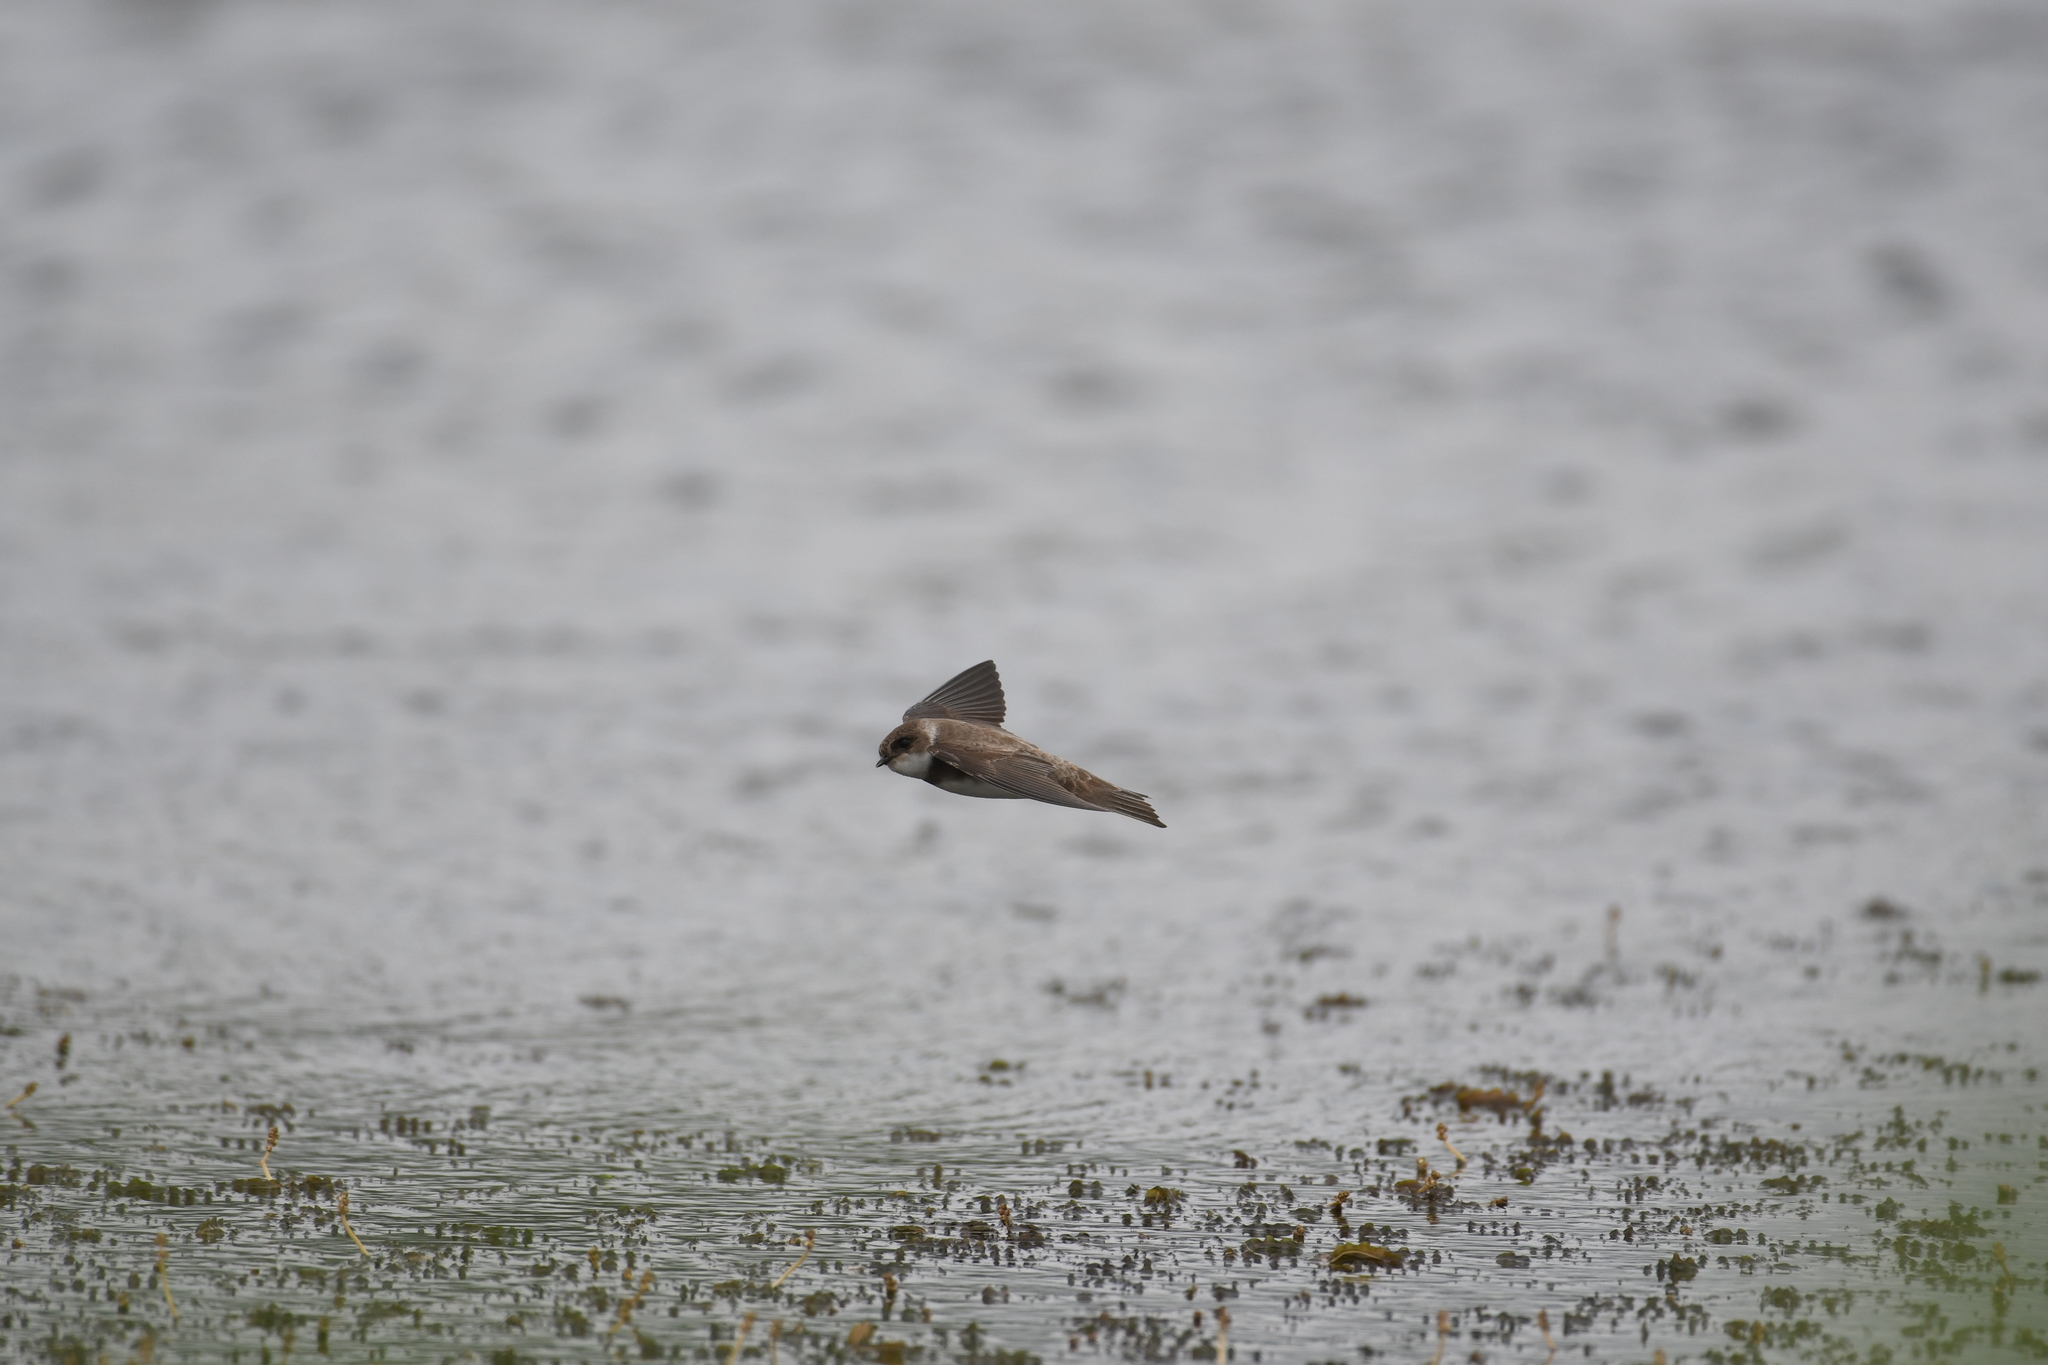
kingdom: Animalia
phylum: Chordata
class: Aves
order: Passeriformes
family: Hirundinidae
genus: Riparia
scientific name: Riparia riparia
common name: Sand martin
